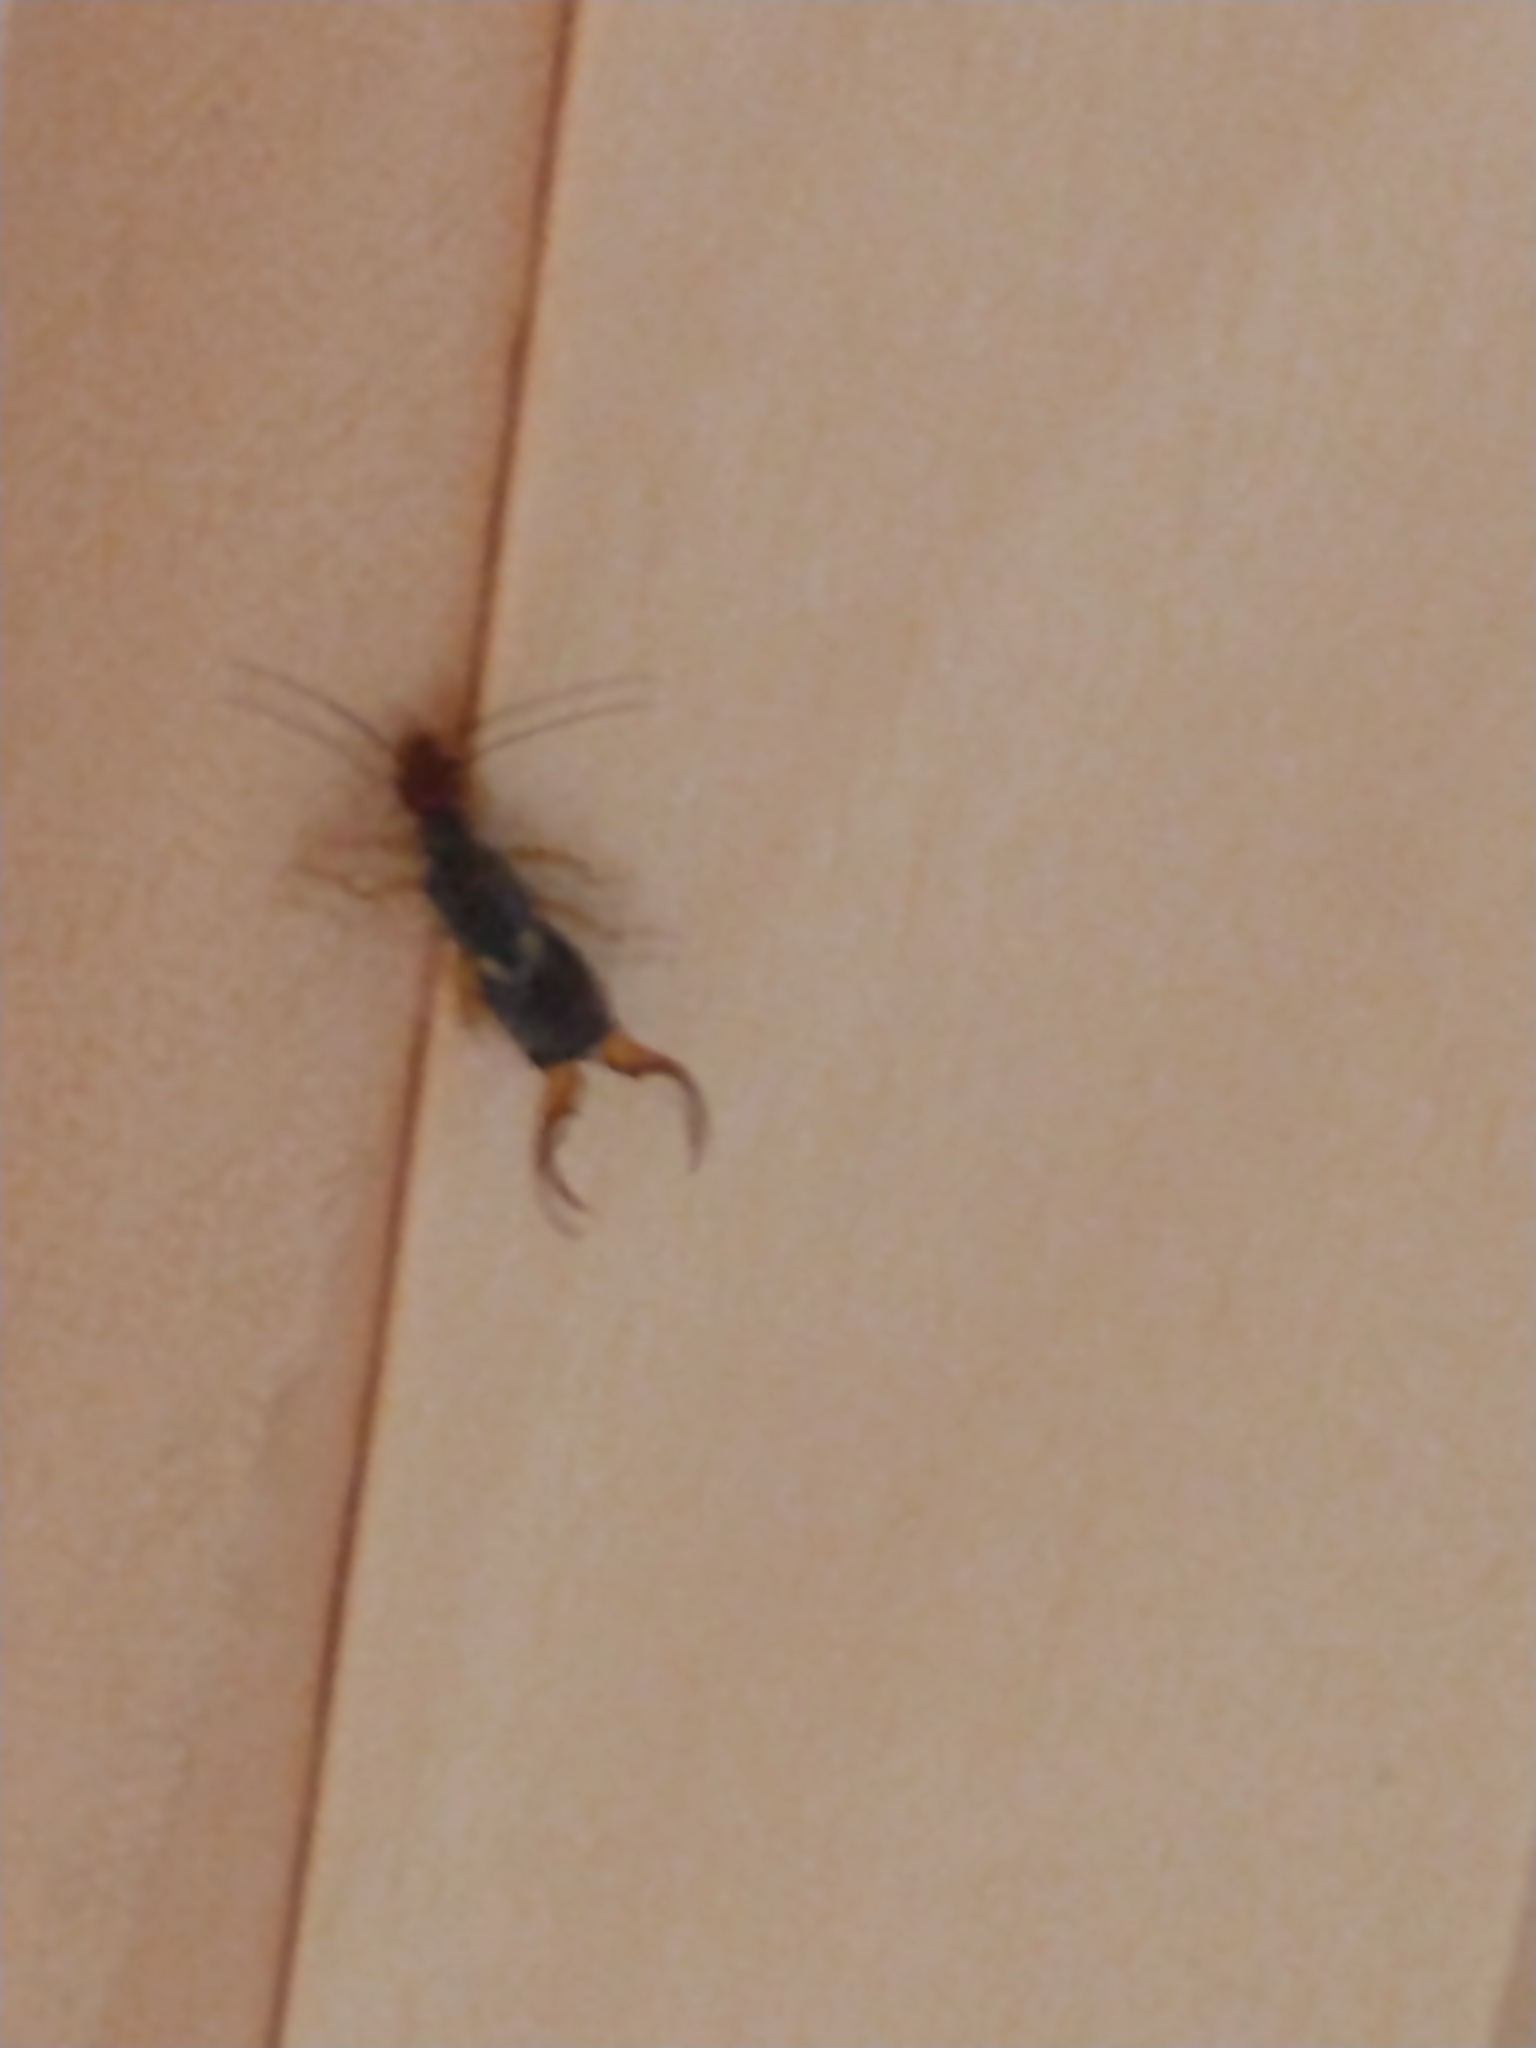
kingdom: Animalia
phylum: Arthropoda
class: Insecta
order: Dermaptera
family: Forficulidae
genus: Forficula
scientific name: Forficula
